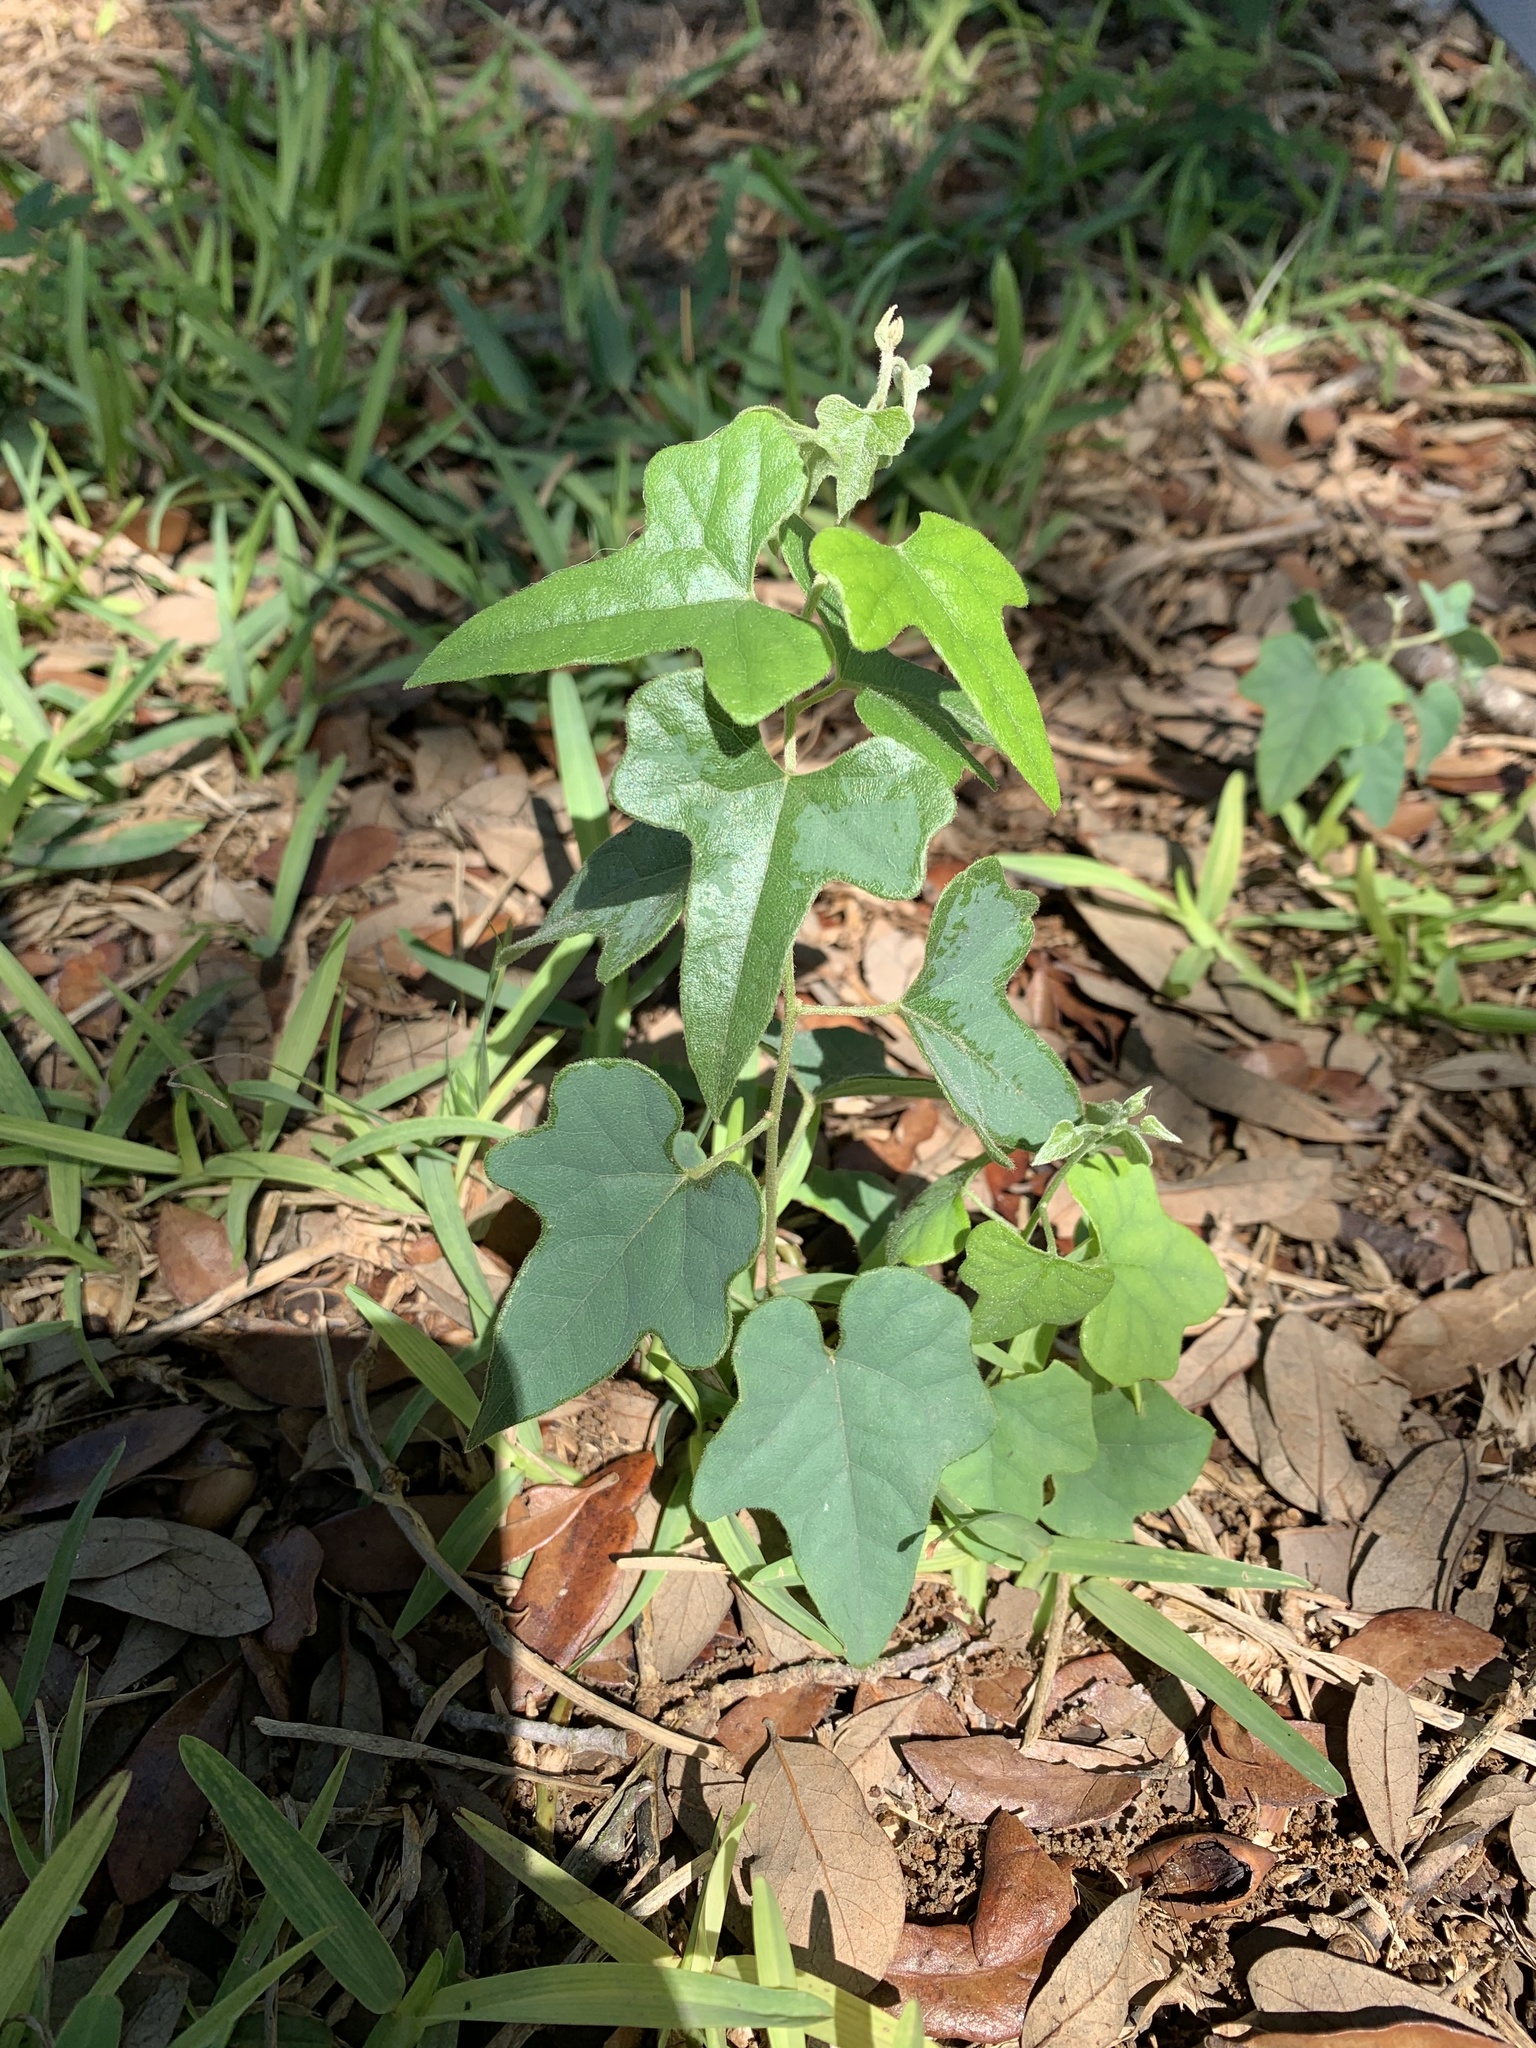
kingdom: Plantae
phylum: Tracheophyta
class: Magnoliopsida
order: Ranunculales
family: Menispermaceae
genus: Cocculus
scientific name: Cocculus carolinus
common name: Carolina moonseed
